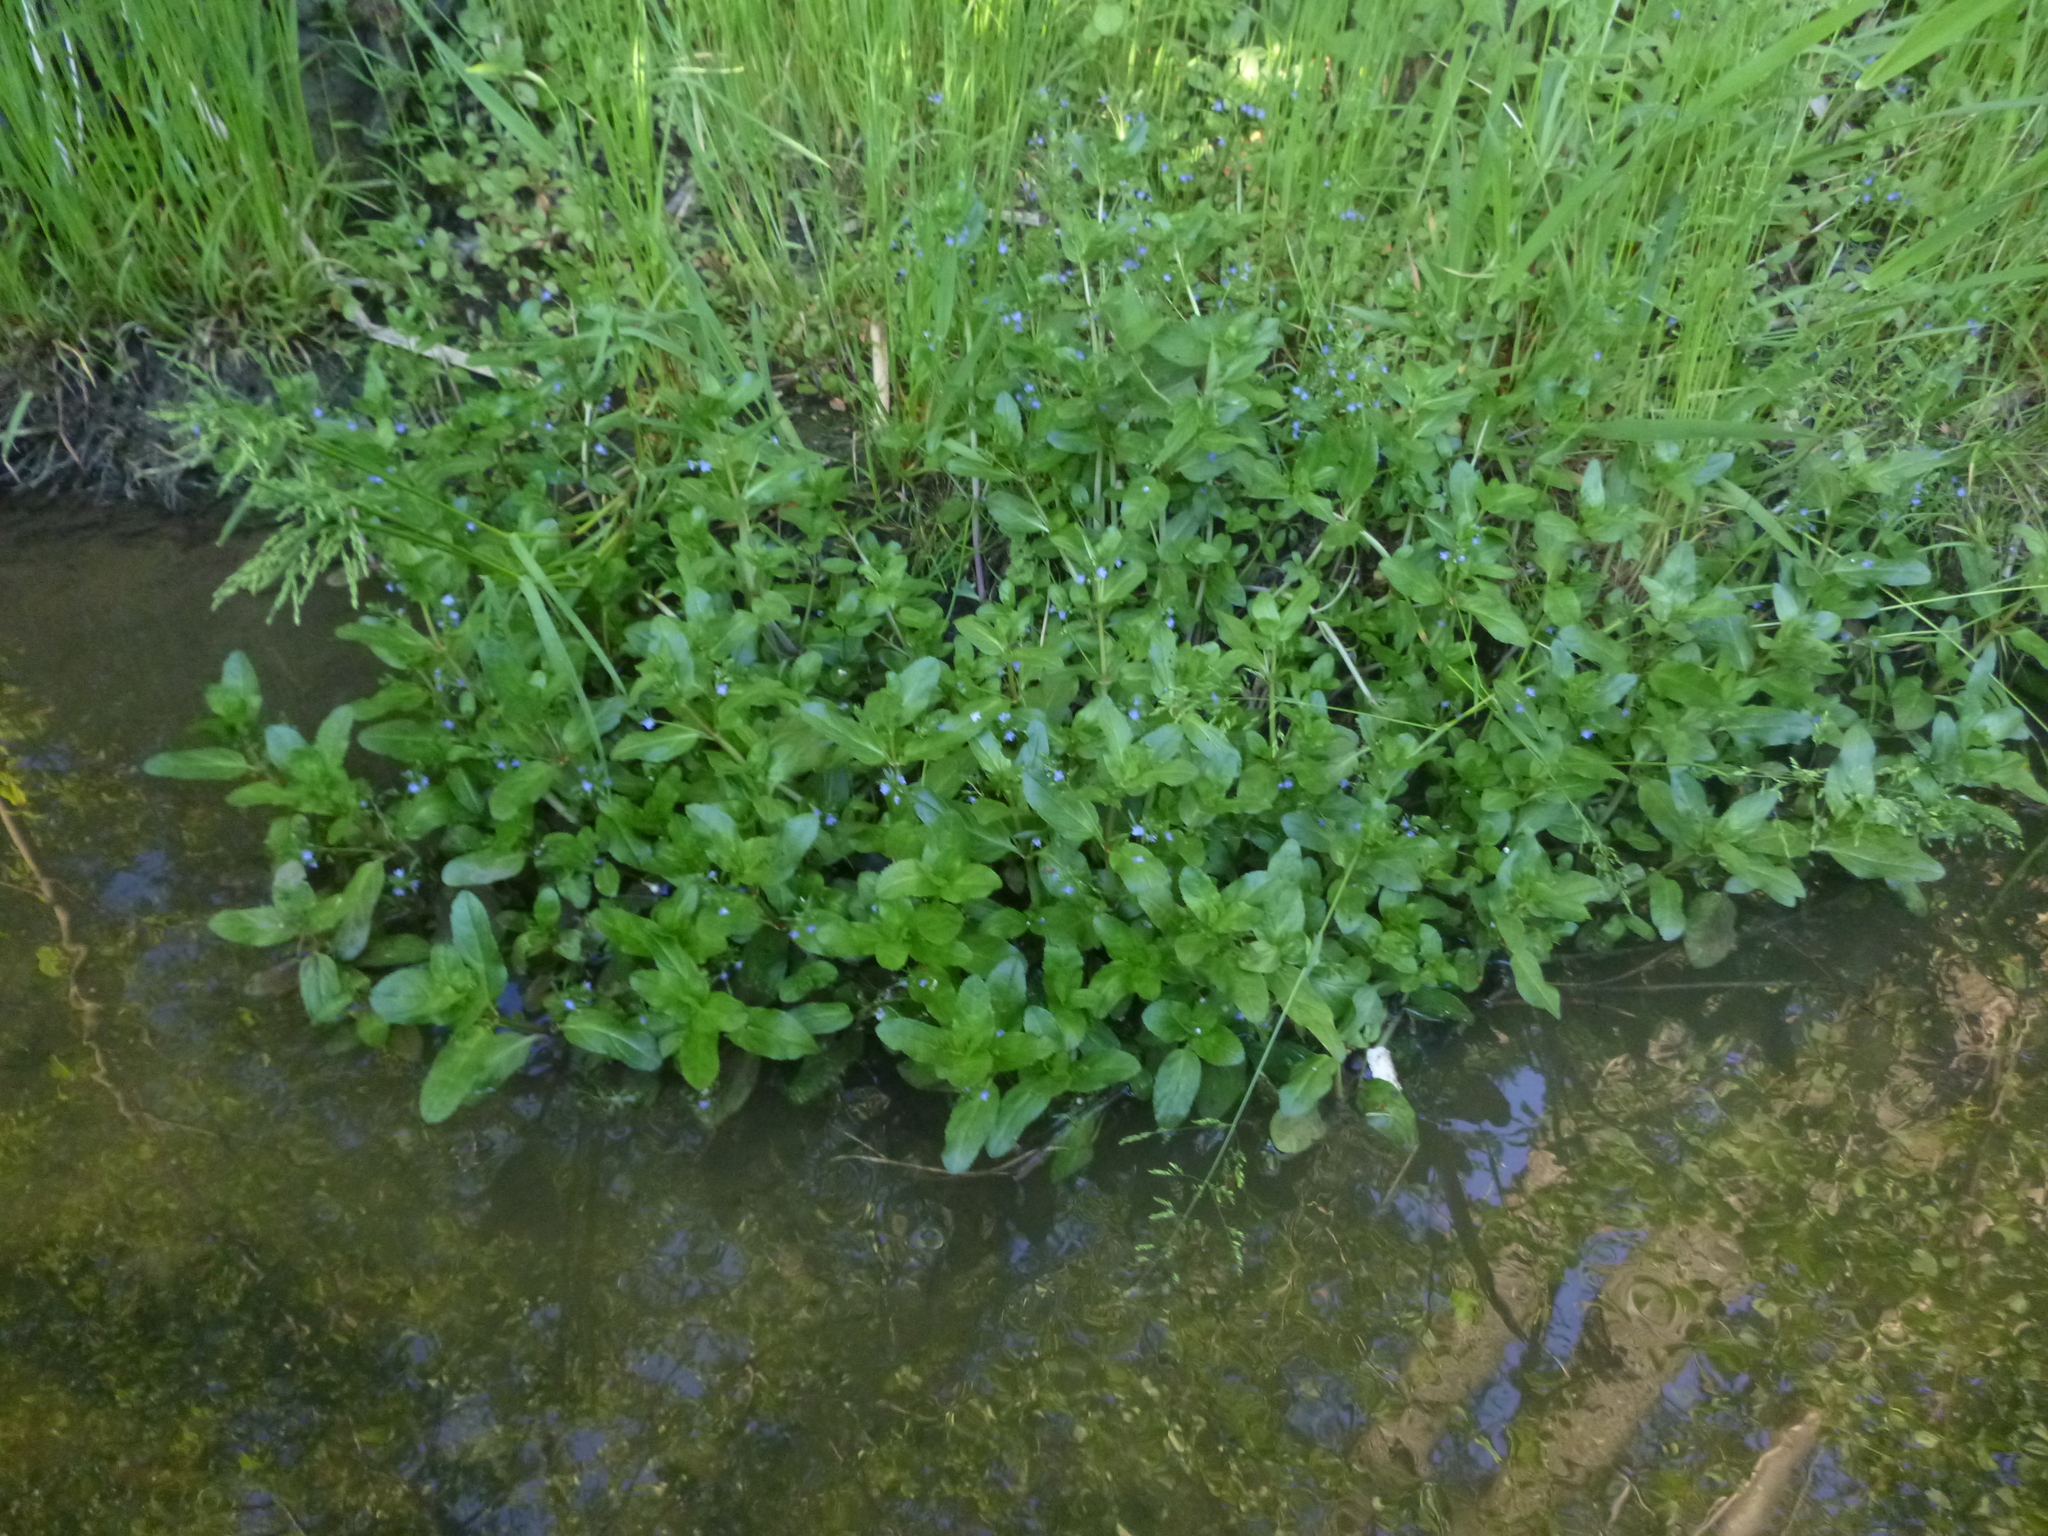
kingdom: Plantae
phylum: Tracheophyta
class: Magnoliopsida
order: Lamiales
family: Plantaginaceae
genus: Veronica
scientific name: Veronica beccabunga
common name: Brooklime
